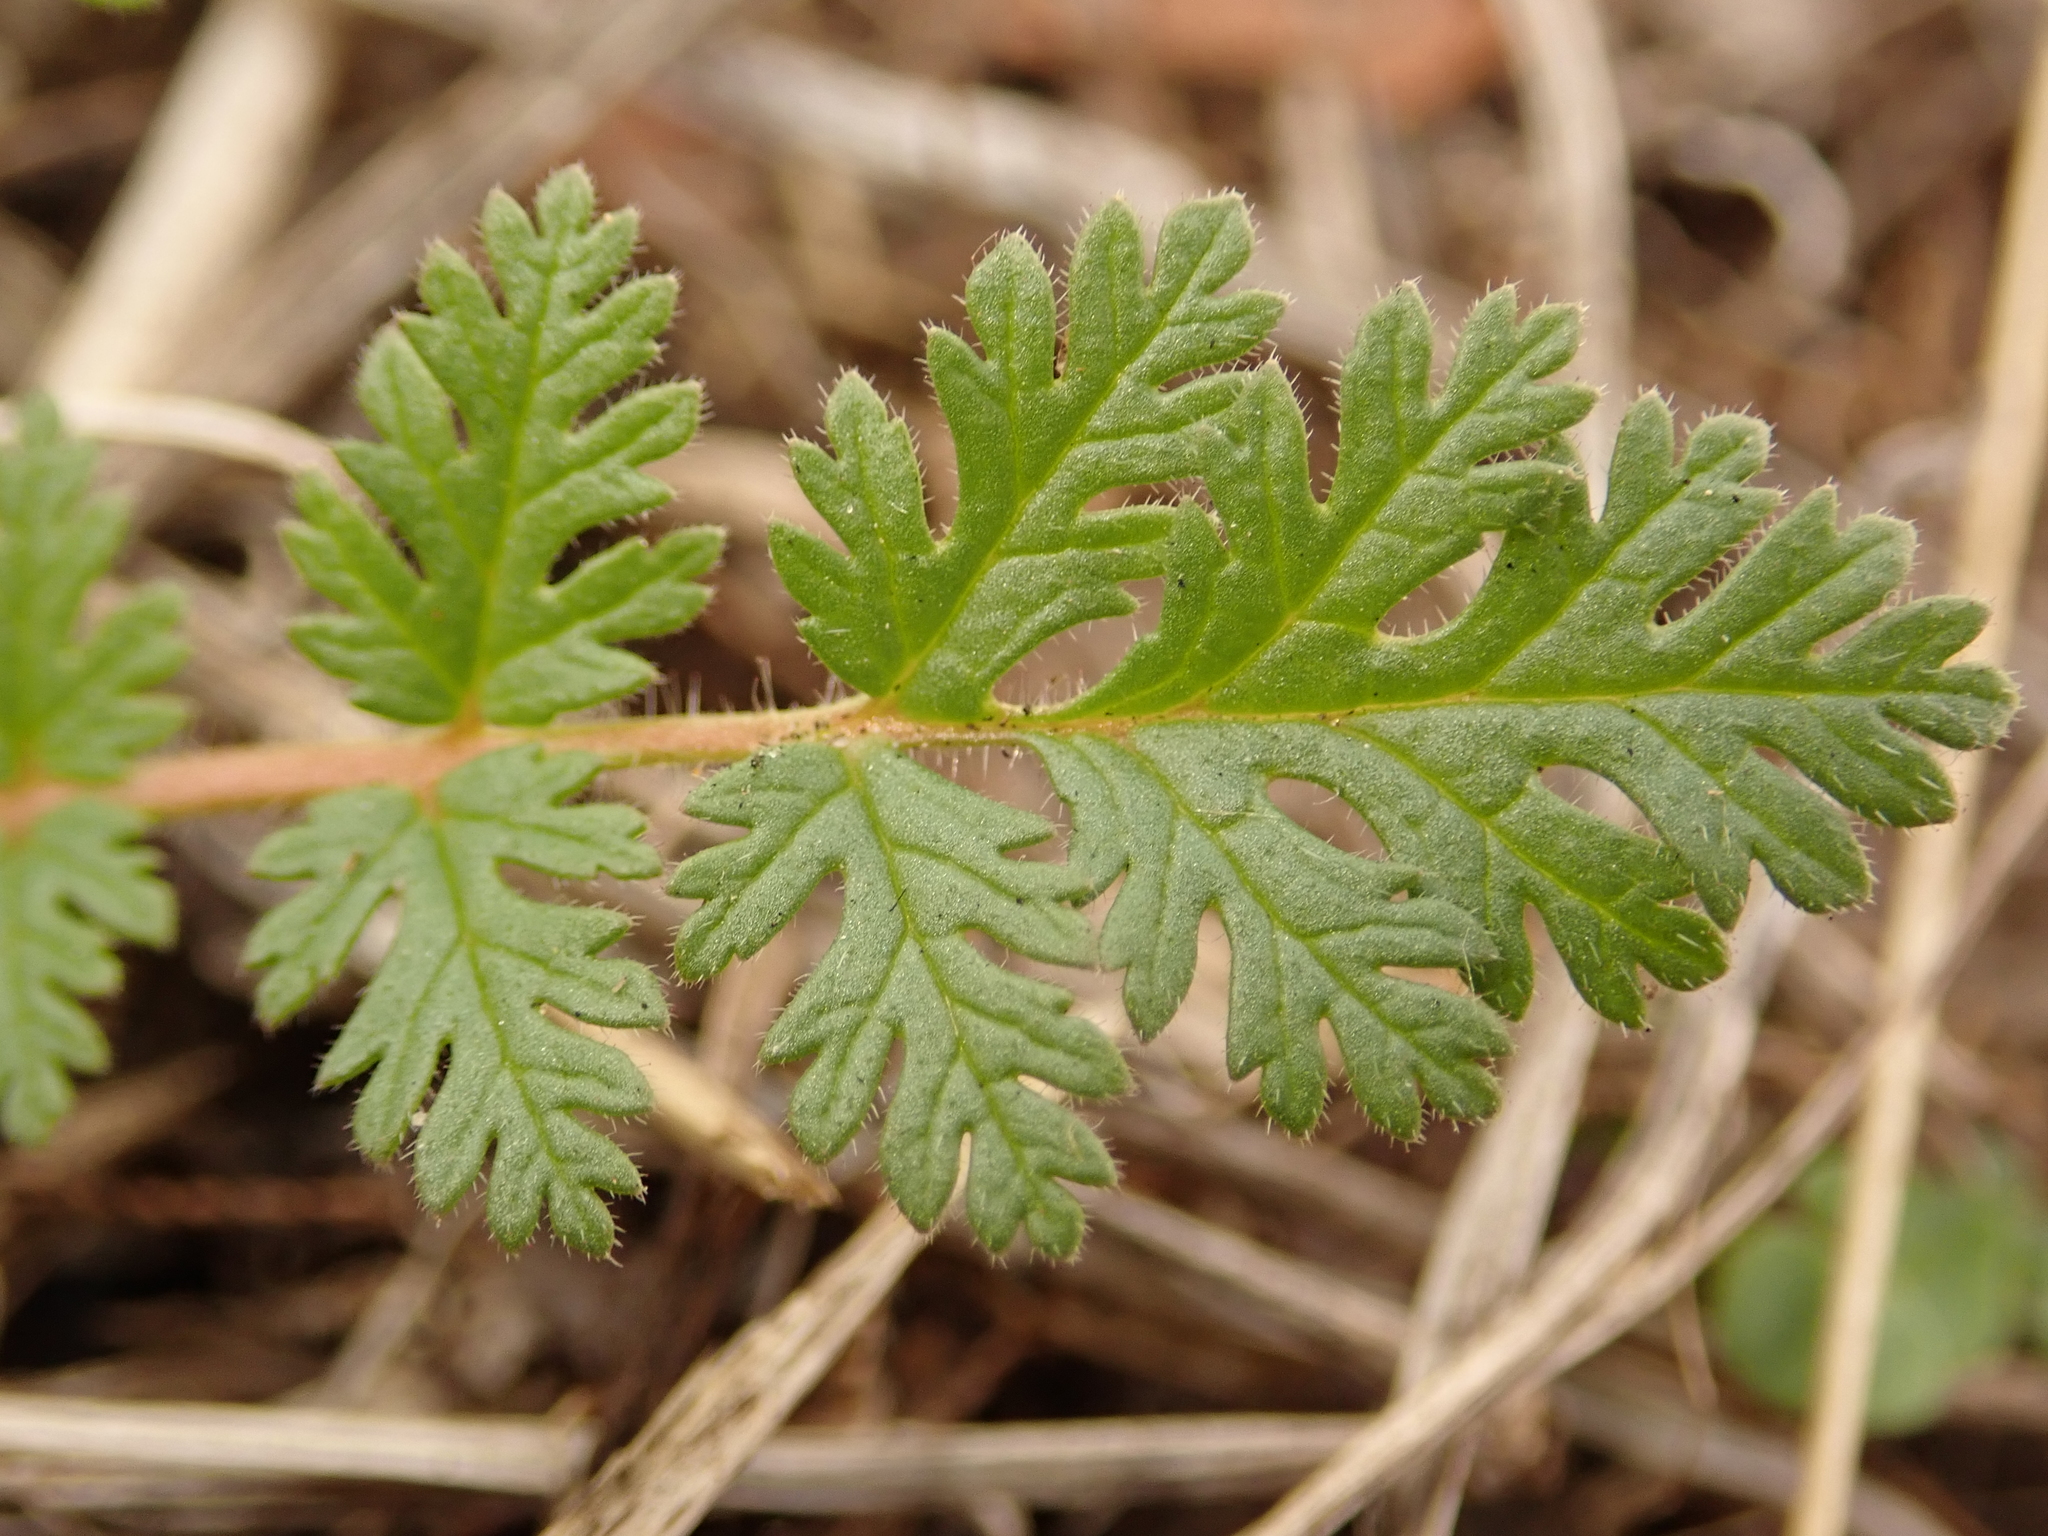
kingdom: Plantae
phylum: Tracheophyta
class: Magnoliopsida
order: Geraniales
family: Geraniaceae
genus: Erodium
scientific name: Erodium cicutarium
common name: Common stork's-bill
